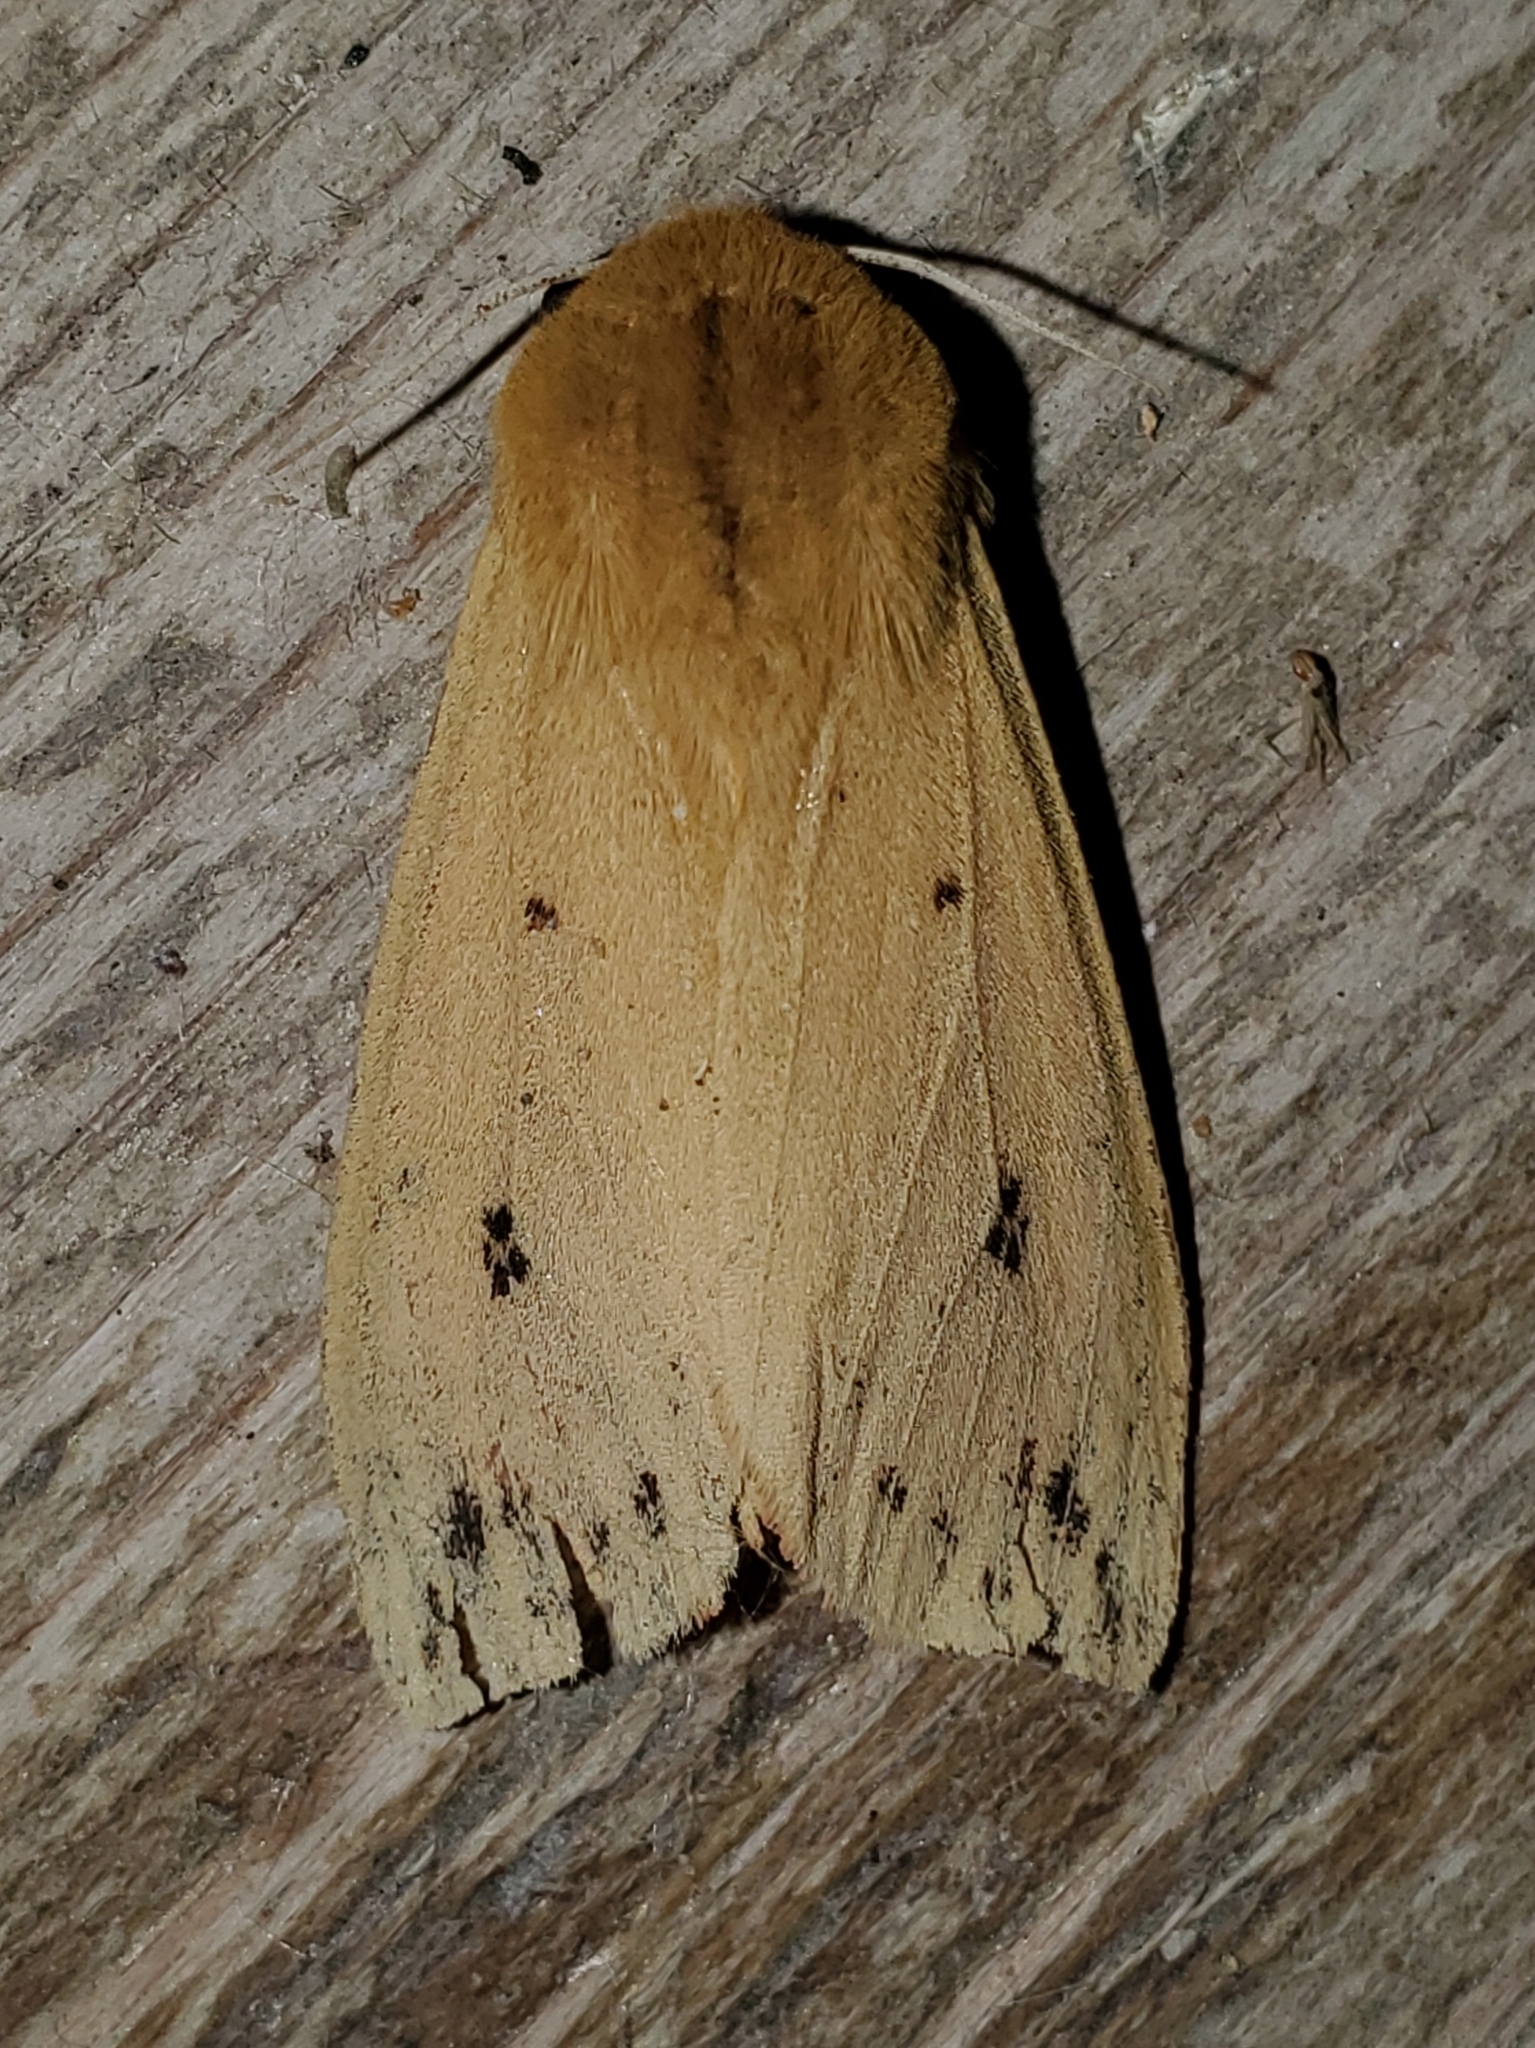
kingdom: Animalia
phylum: Arthropoda
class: Insecta
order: Lepidoptera
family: Erebidae
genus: Pyrrharctia
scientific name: Pyrrharctia isabella
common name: Isabella tiger moth
